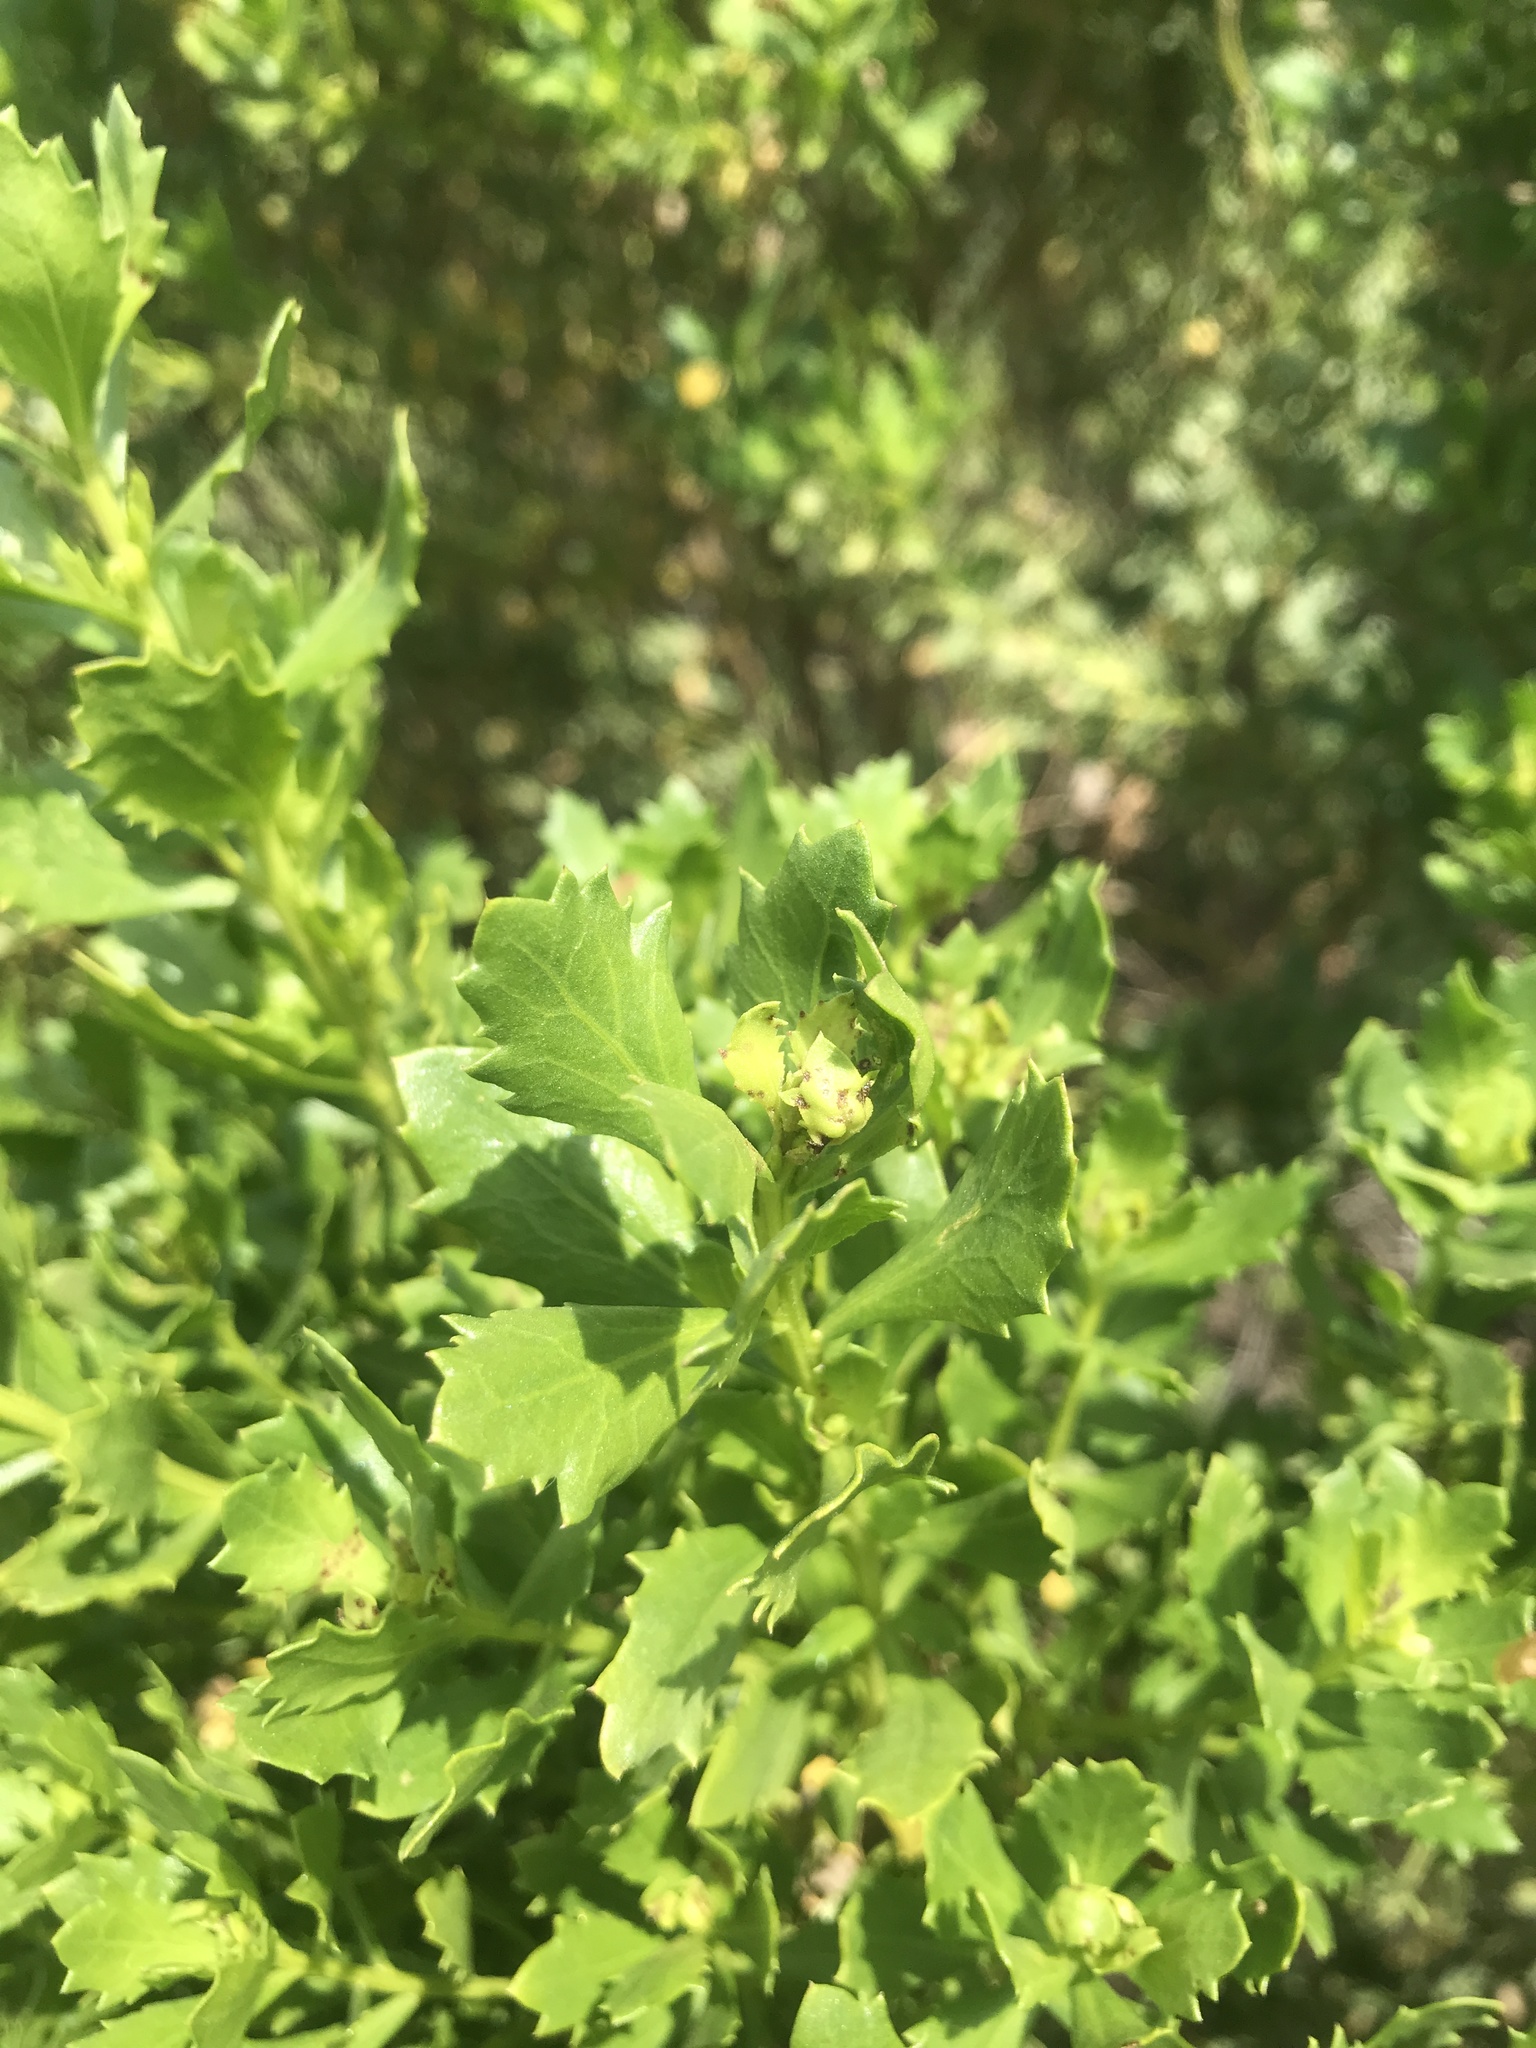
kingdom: Plantae
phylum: Tracheophyta
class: Magnoliopsida
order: Asterales
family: Asteraceae
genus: Baccharis
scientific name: Baccharis pilularis
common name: Coyotebrush
